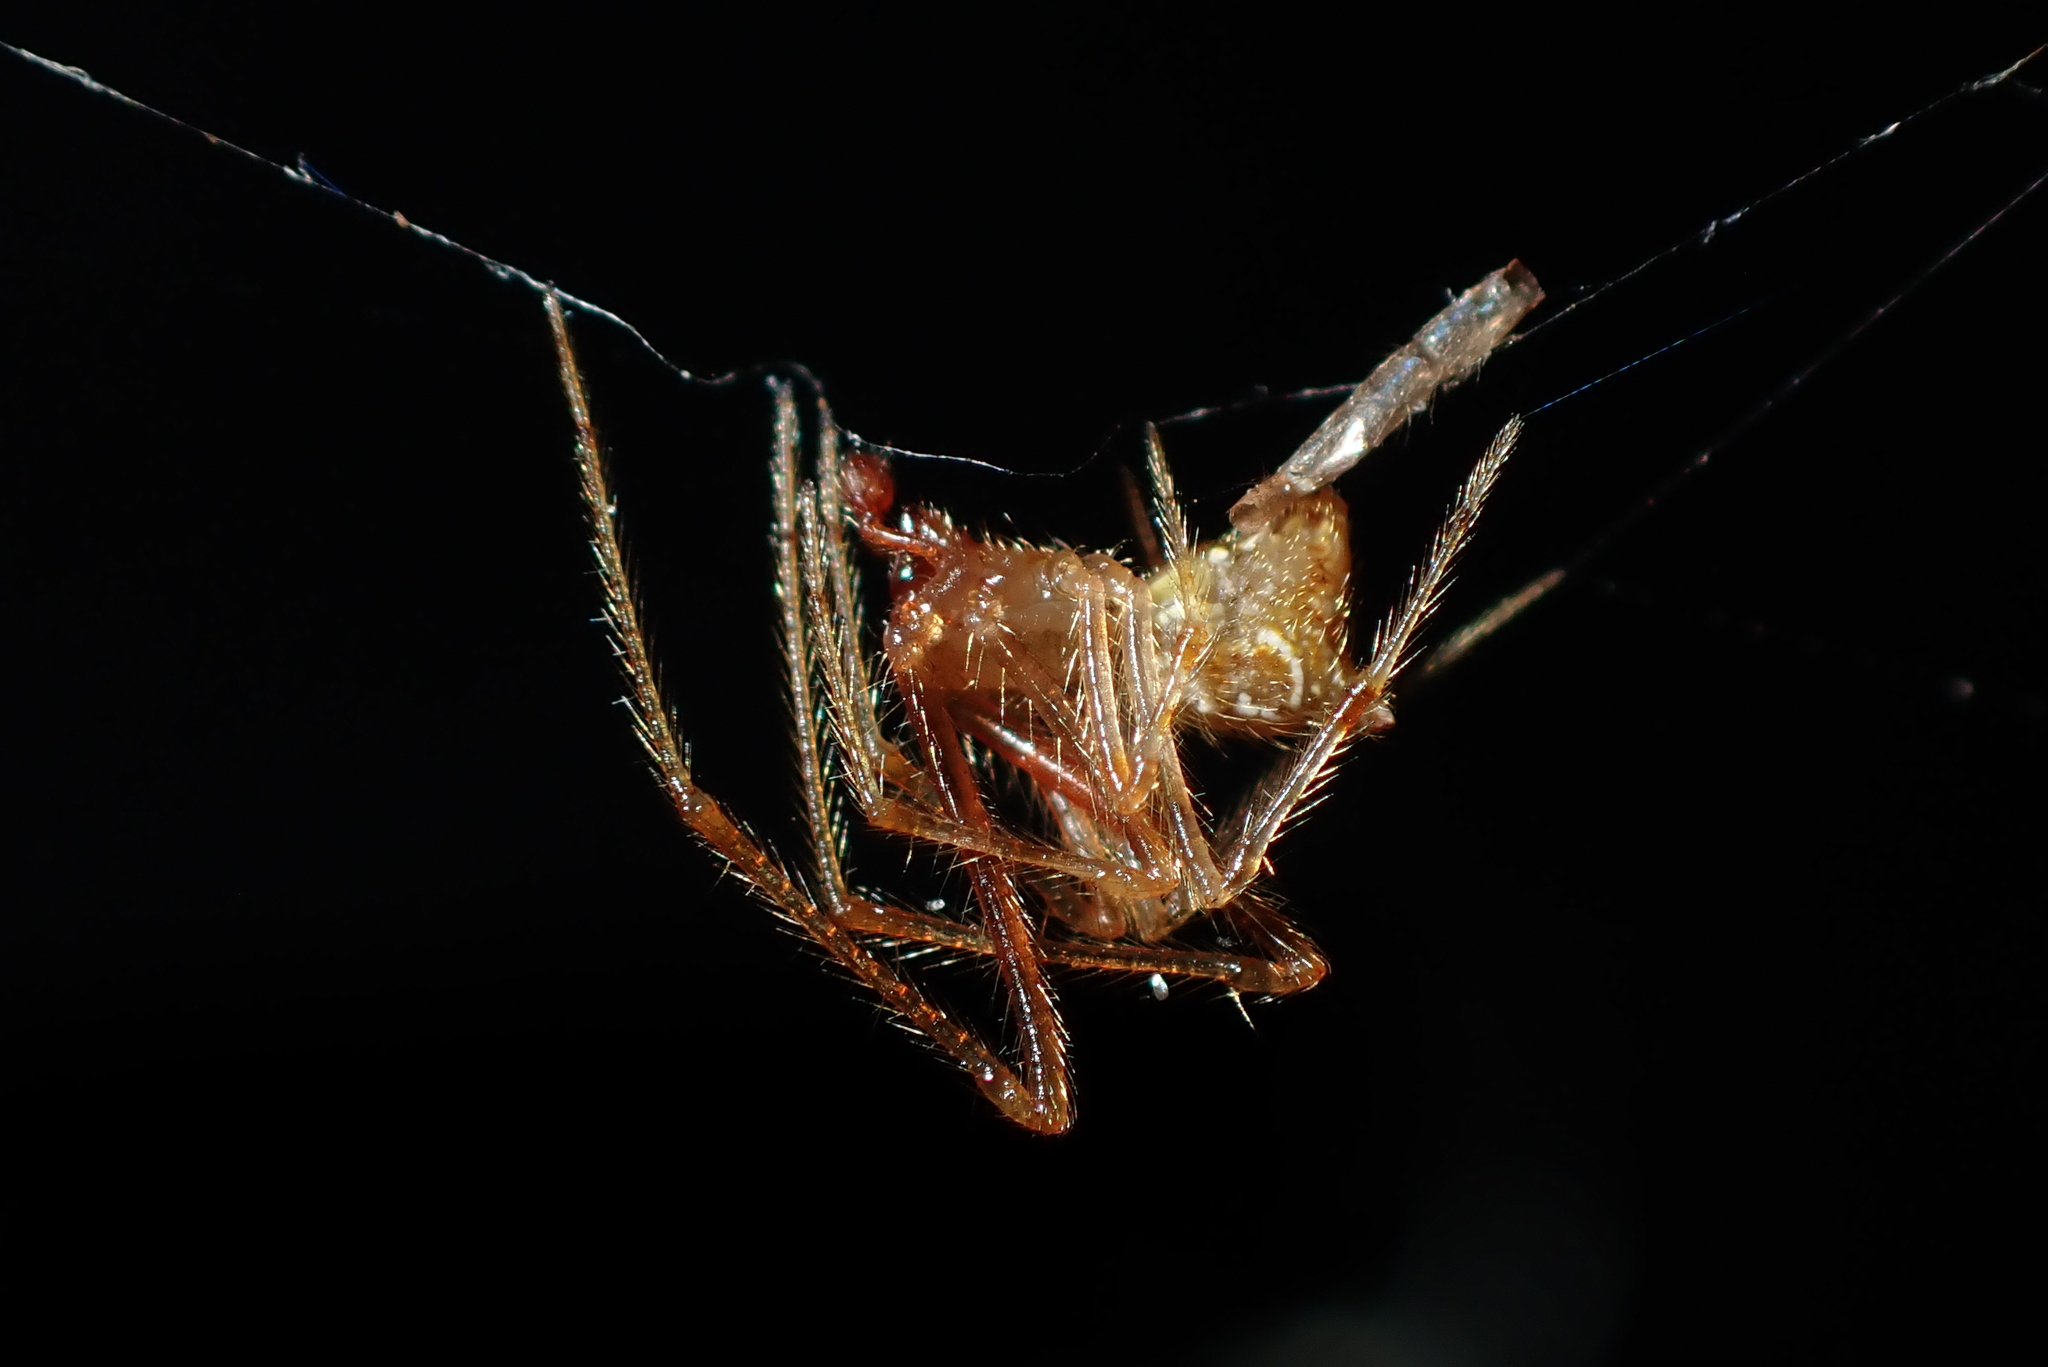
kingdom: Animalia
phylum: Arthropoda
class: Arachnida
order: Araneae
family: Theridiidae
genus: Rhomphaea
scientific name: Rhomphaea urquharti
